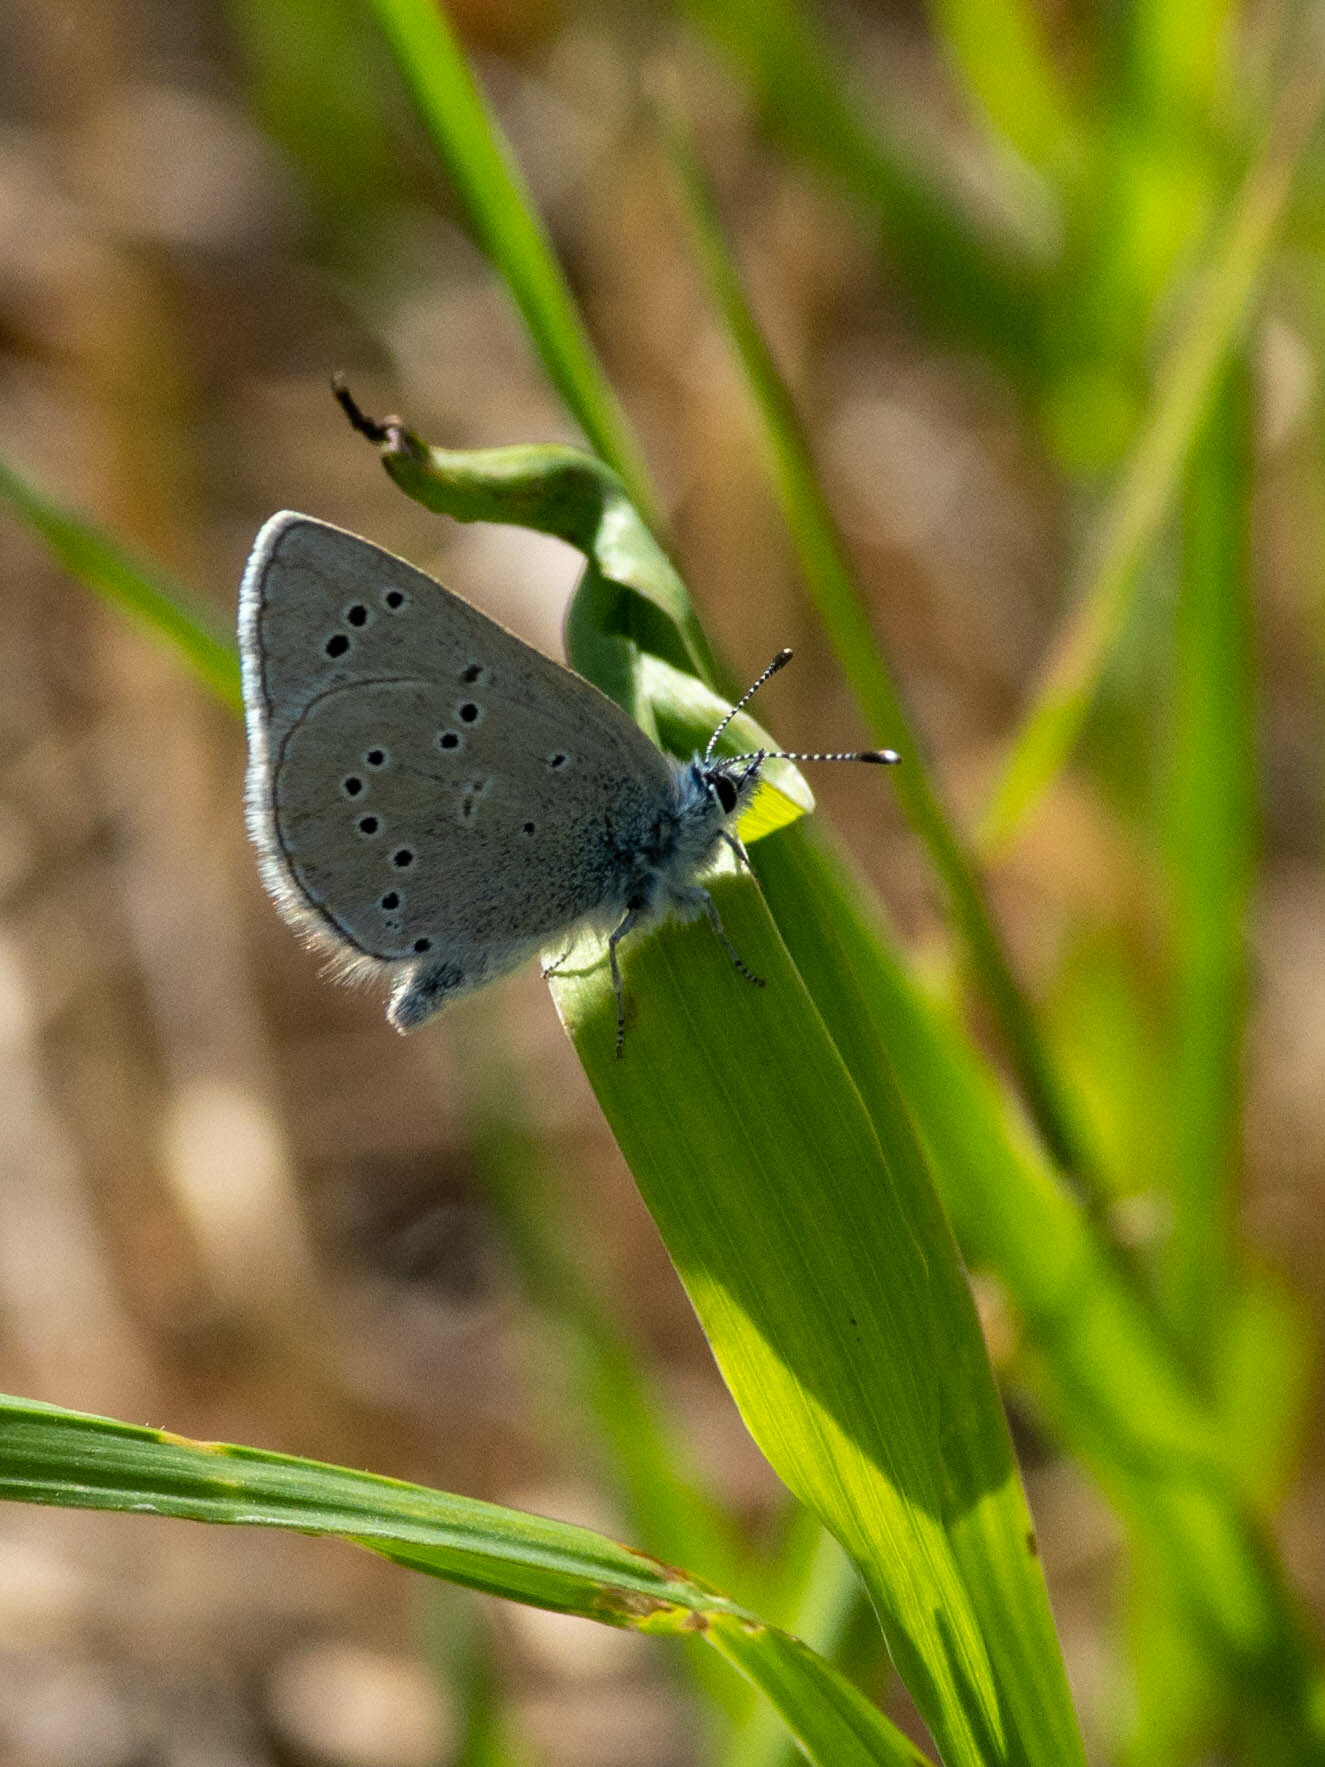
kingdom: Animalia
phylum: Arthropoda
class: Insecta
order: Lepidoptera
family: Lycaenidae
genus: Glaucopsyche
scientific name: Glaucopsyche lygdamus
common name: Silvery blue
